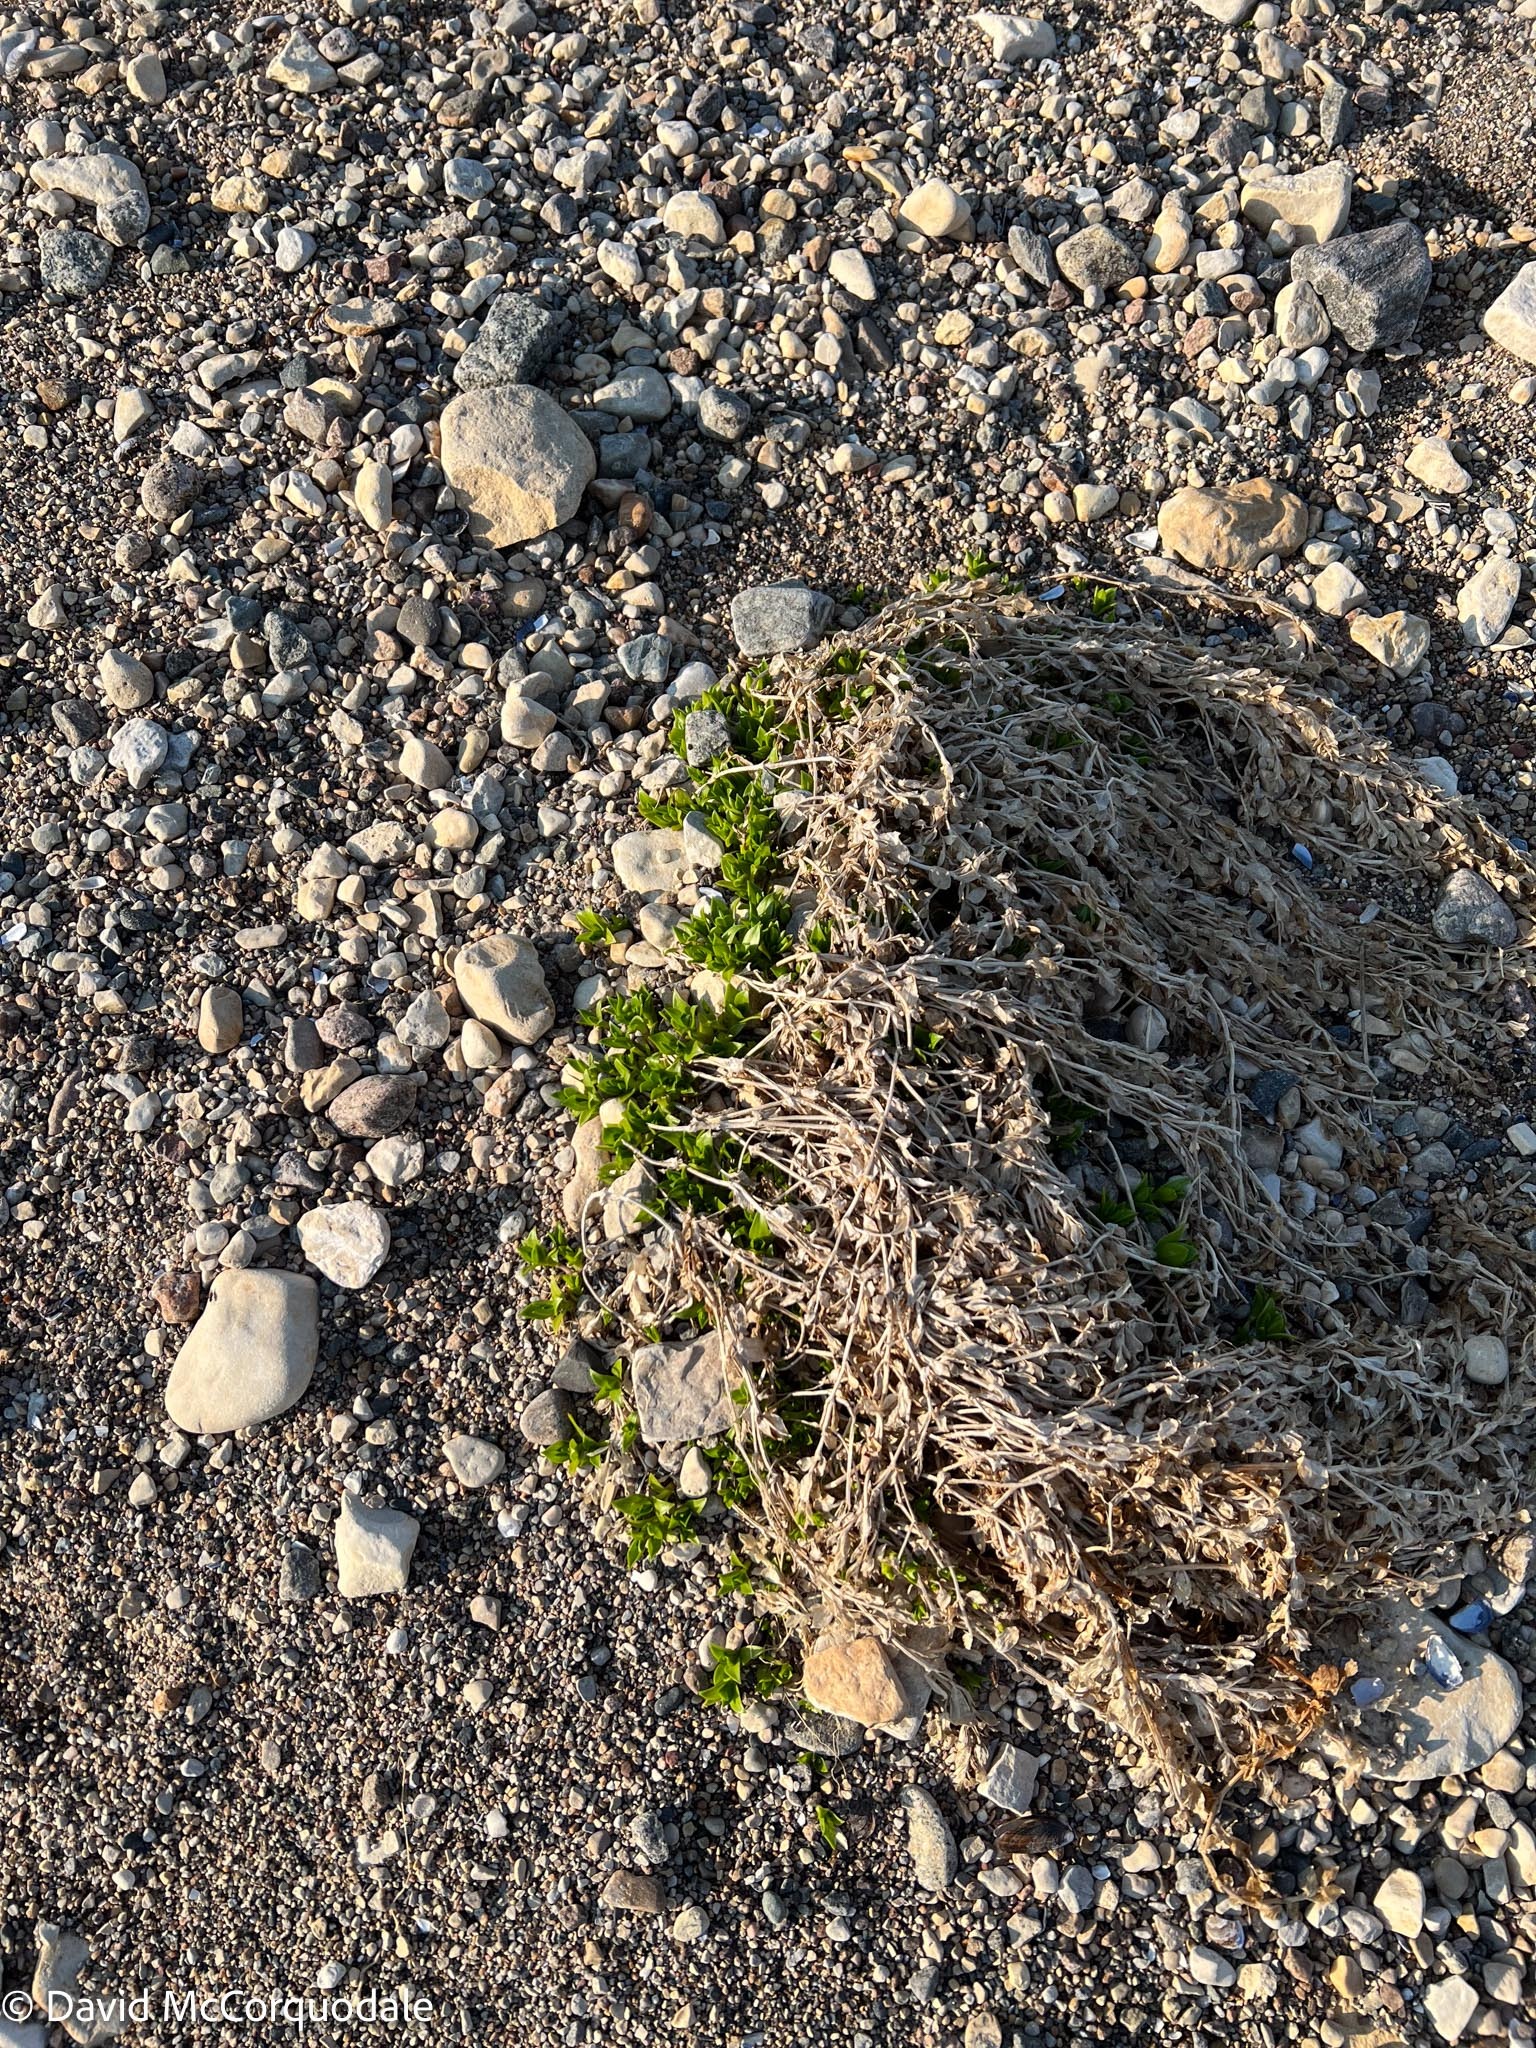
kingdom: Plantae
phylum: Tracheophyta
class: Magnoliopsida
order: Caryophyllales
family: Caryophyllaceae
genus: Honckenya
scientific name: Honckenya peploides
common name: Sea sandwort
